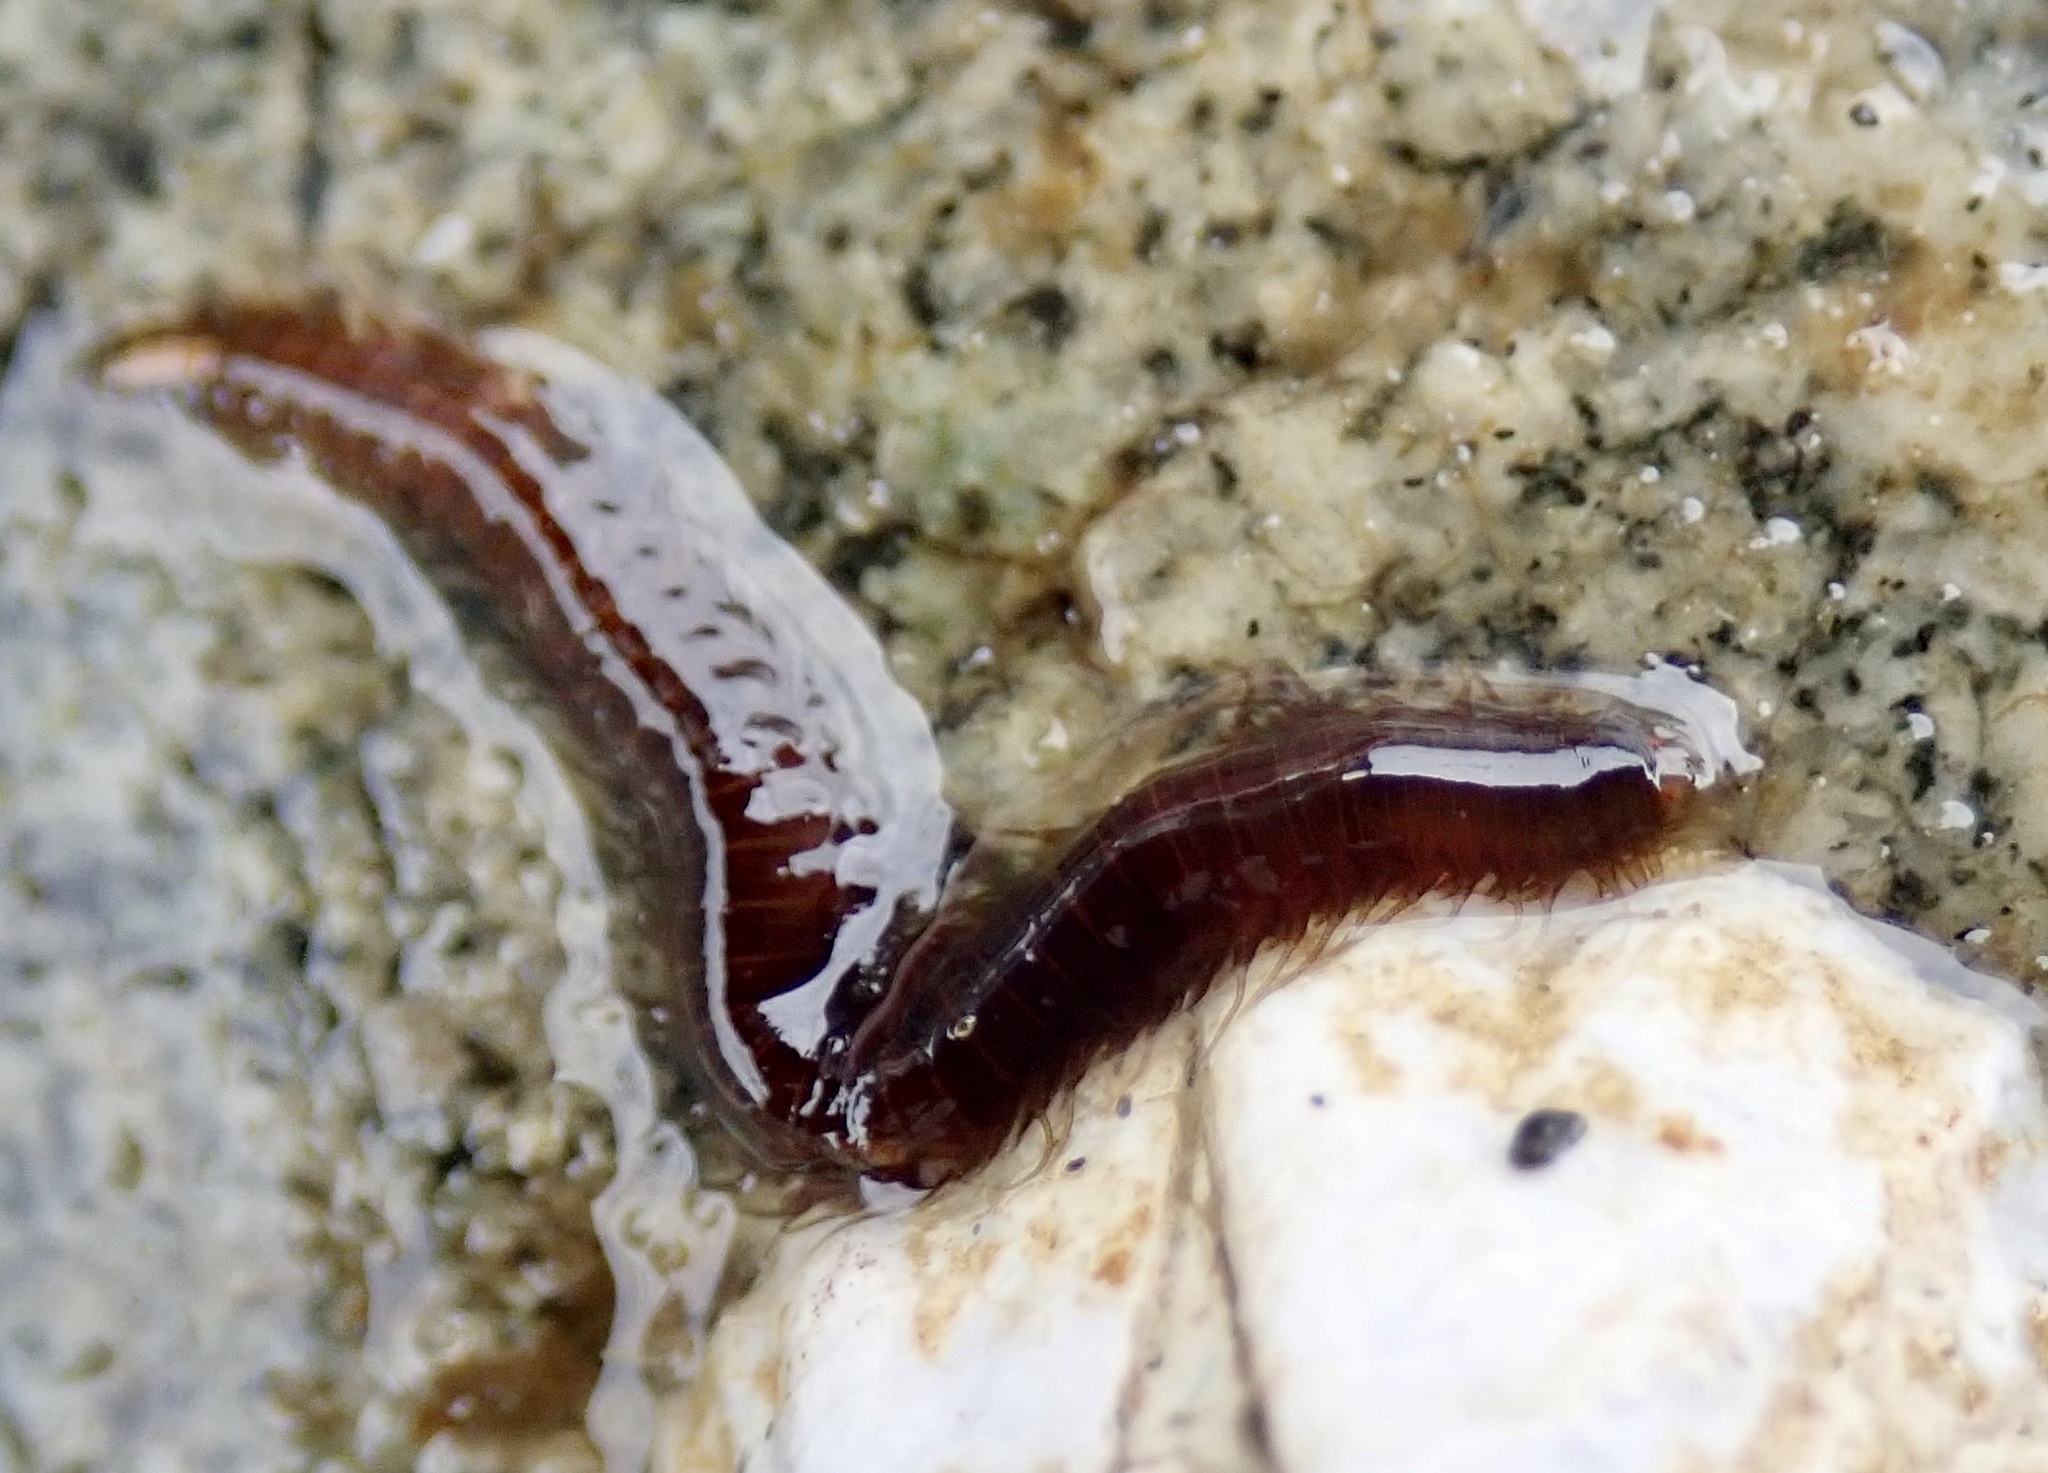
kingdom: Animalia
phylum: Annelida
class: Polychaeta
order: Phyllodocida
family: Hesionidae
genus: Oxydromus
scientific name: Oxydromus pugettensis
